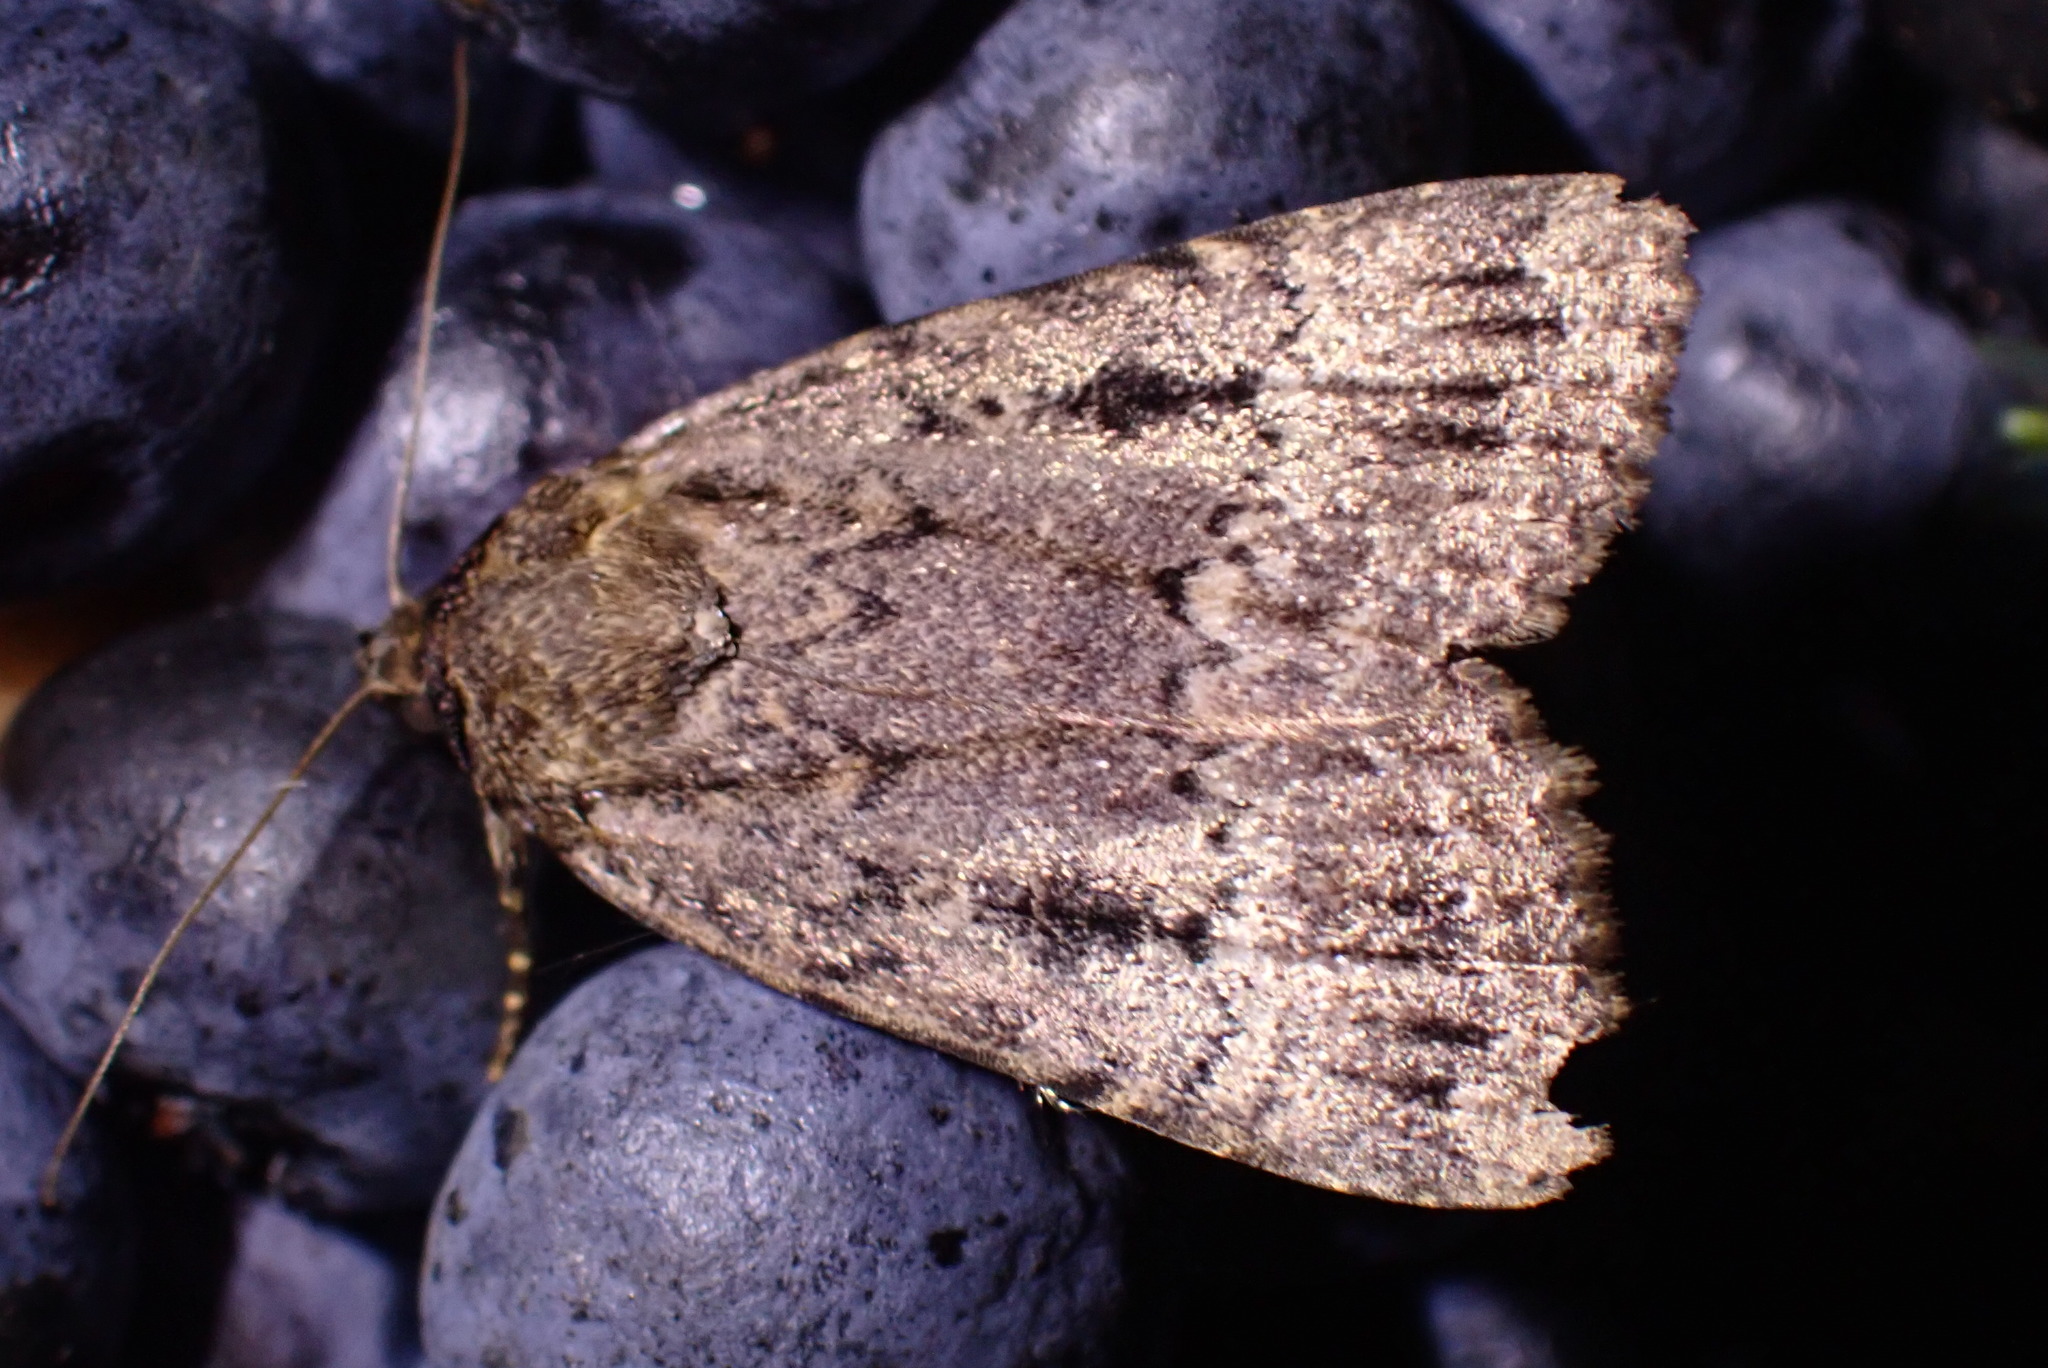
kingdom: Animalia
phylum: Arthropoda
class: Insecta
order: Lepidoptera
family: Noctuidae
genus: Amphipyra
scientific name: Amphipyra pyramidea
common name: Copper underwing
